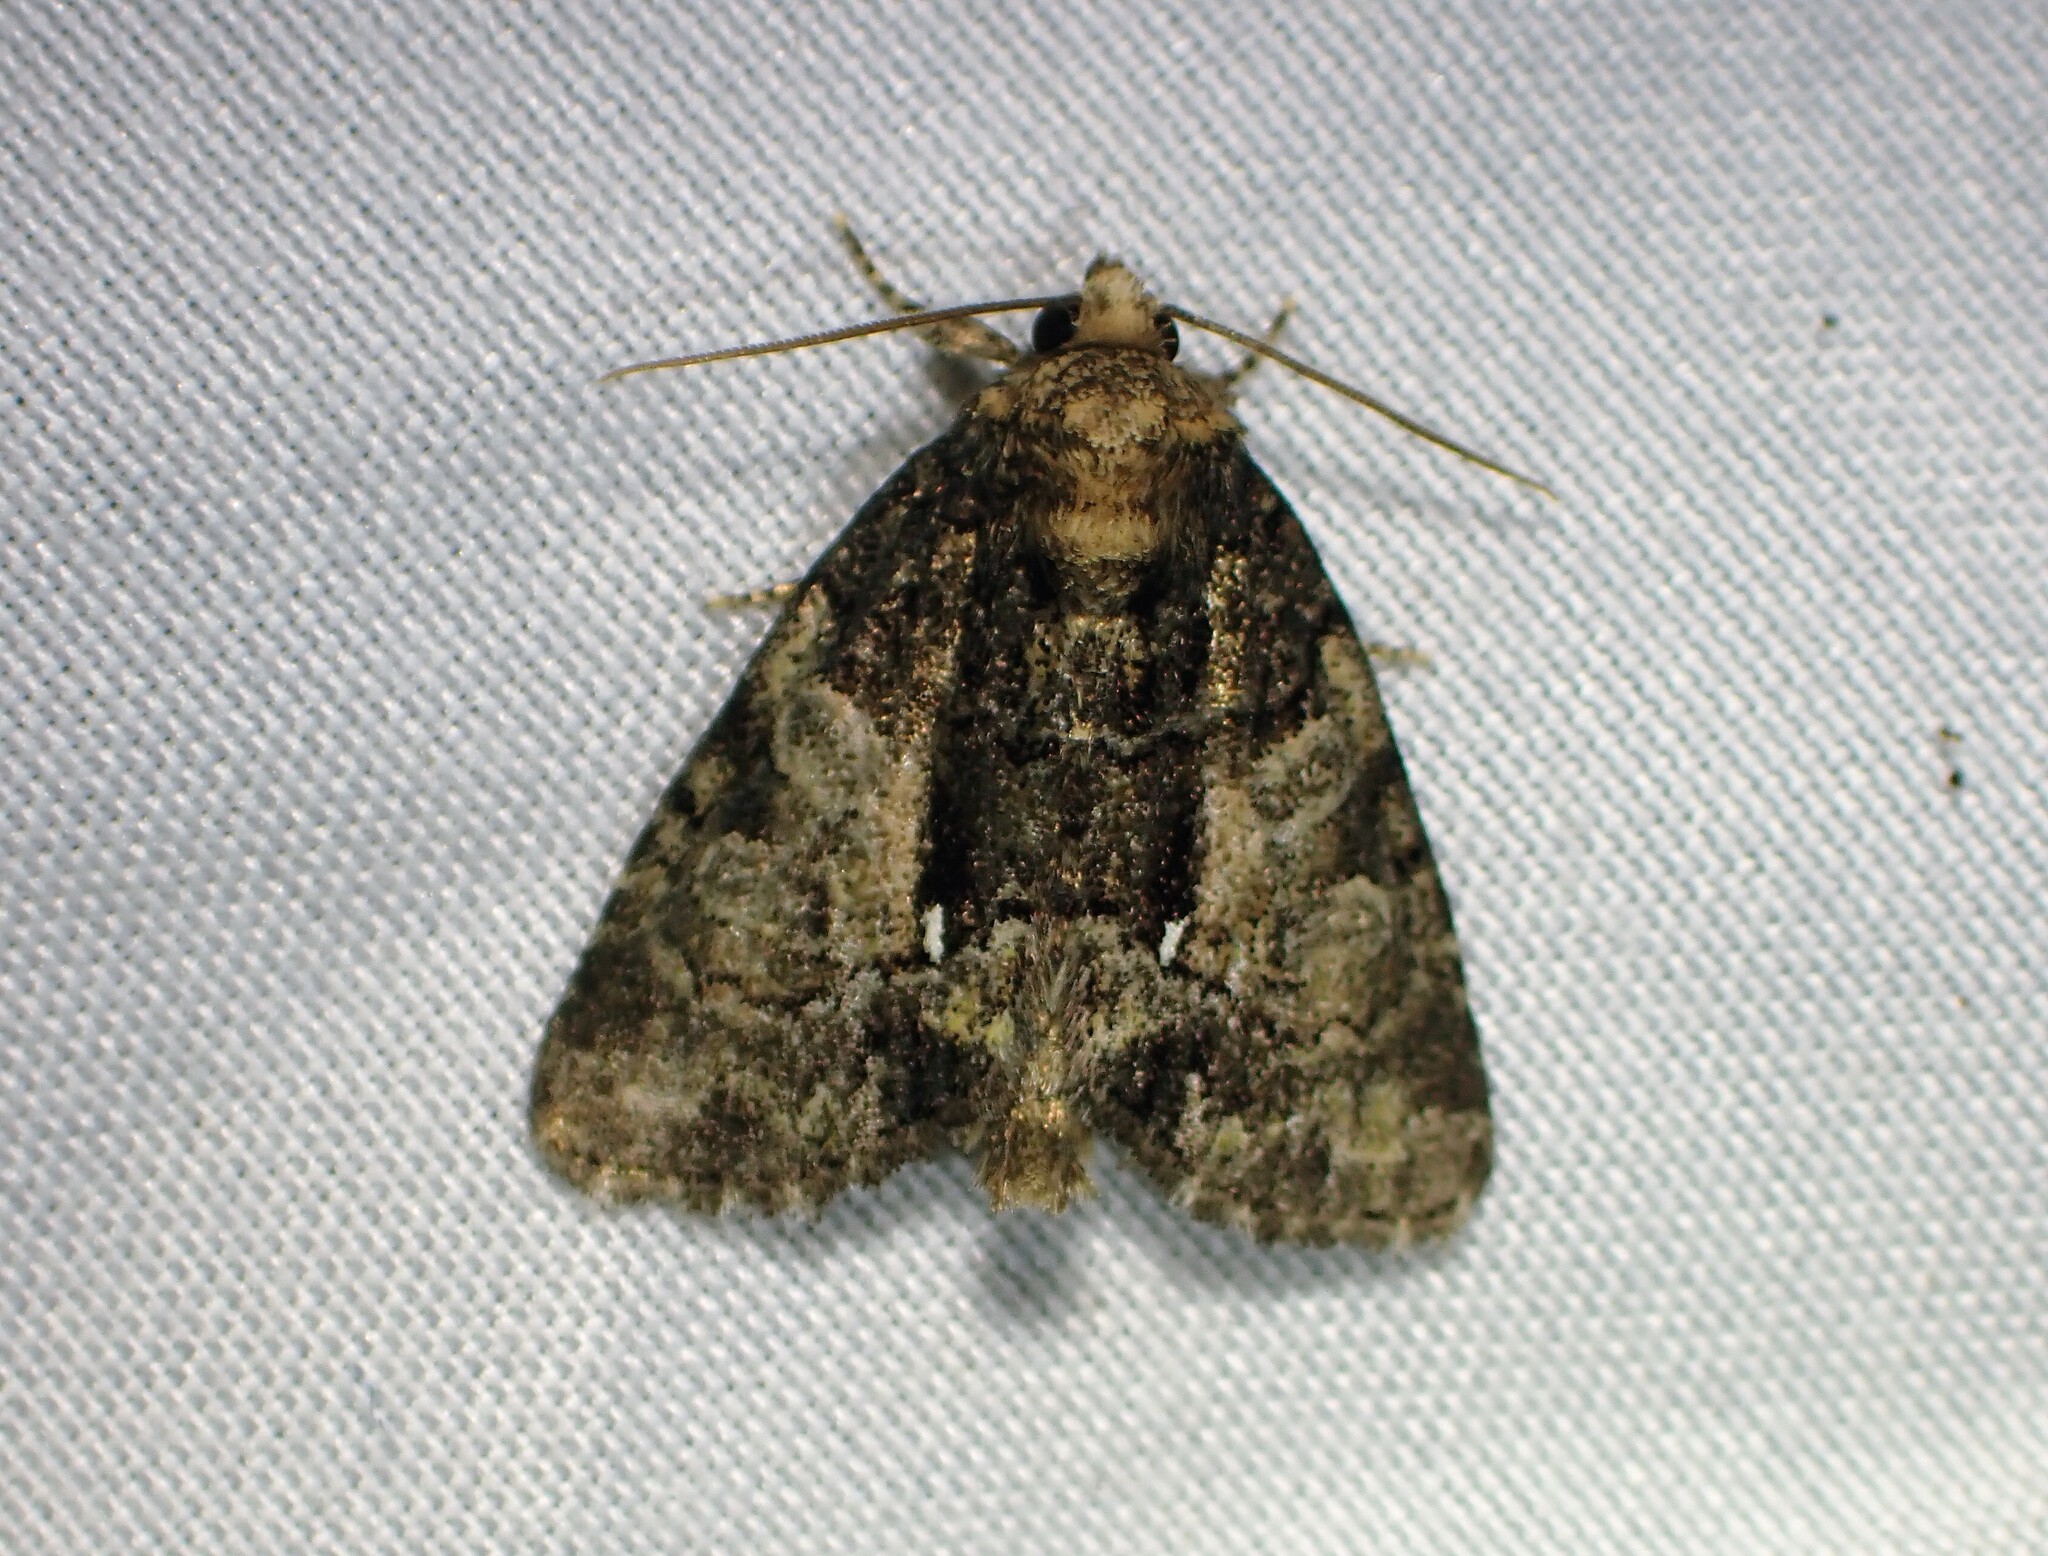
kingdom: Animalia
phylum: Arthropoda
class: Insecta
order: Lepidoptera
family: Noctuidae
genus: Chytonix
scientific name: Chytonix palliatricula
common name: Cloaked marvel
